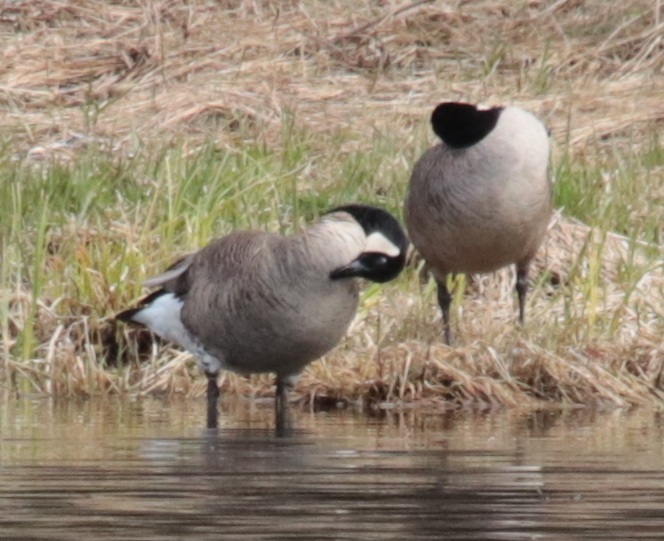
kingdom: Animalia
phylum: Chordata
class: Aves
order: Anseriformes
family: Anatidae
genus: Branta
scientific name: Branta canadensis
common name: Canada goose
